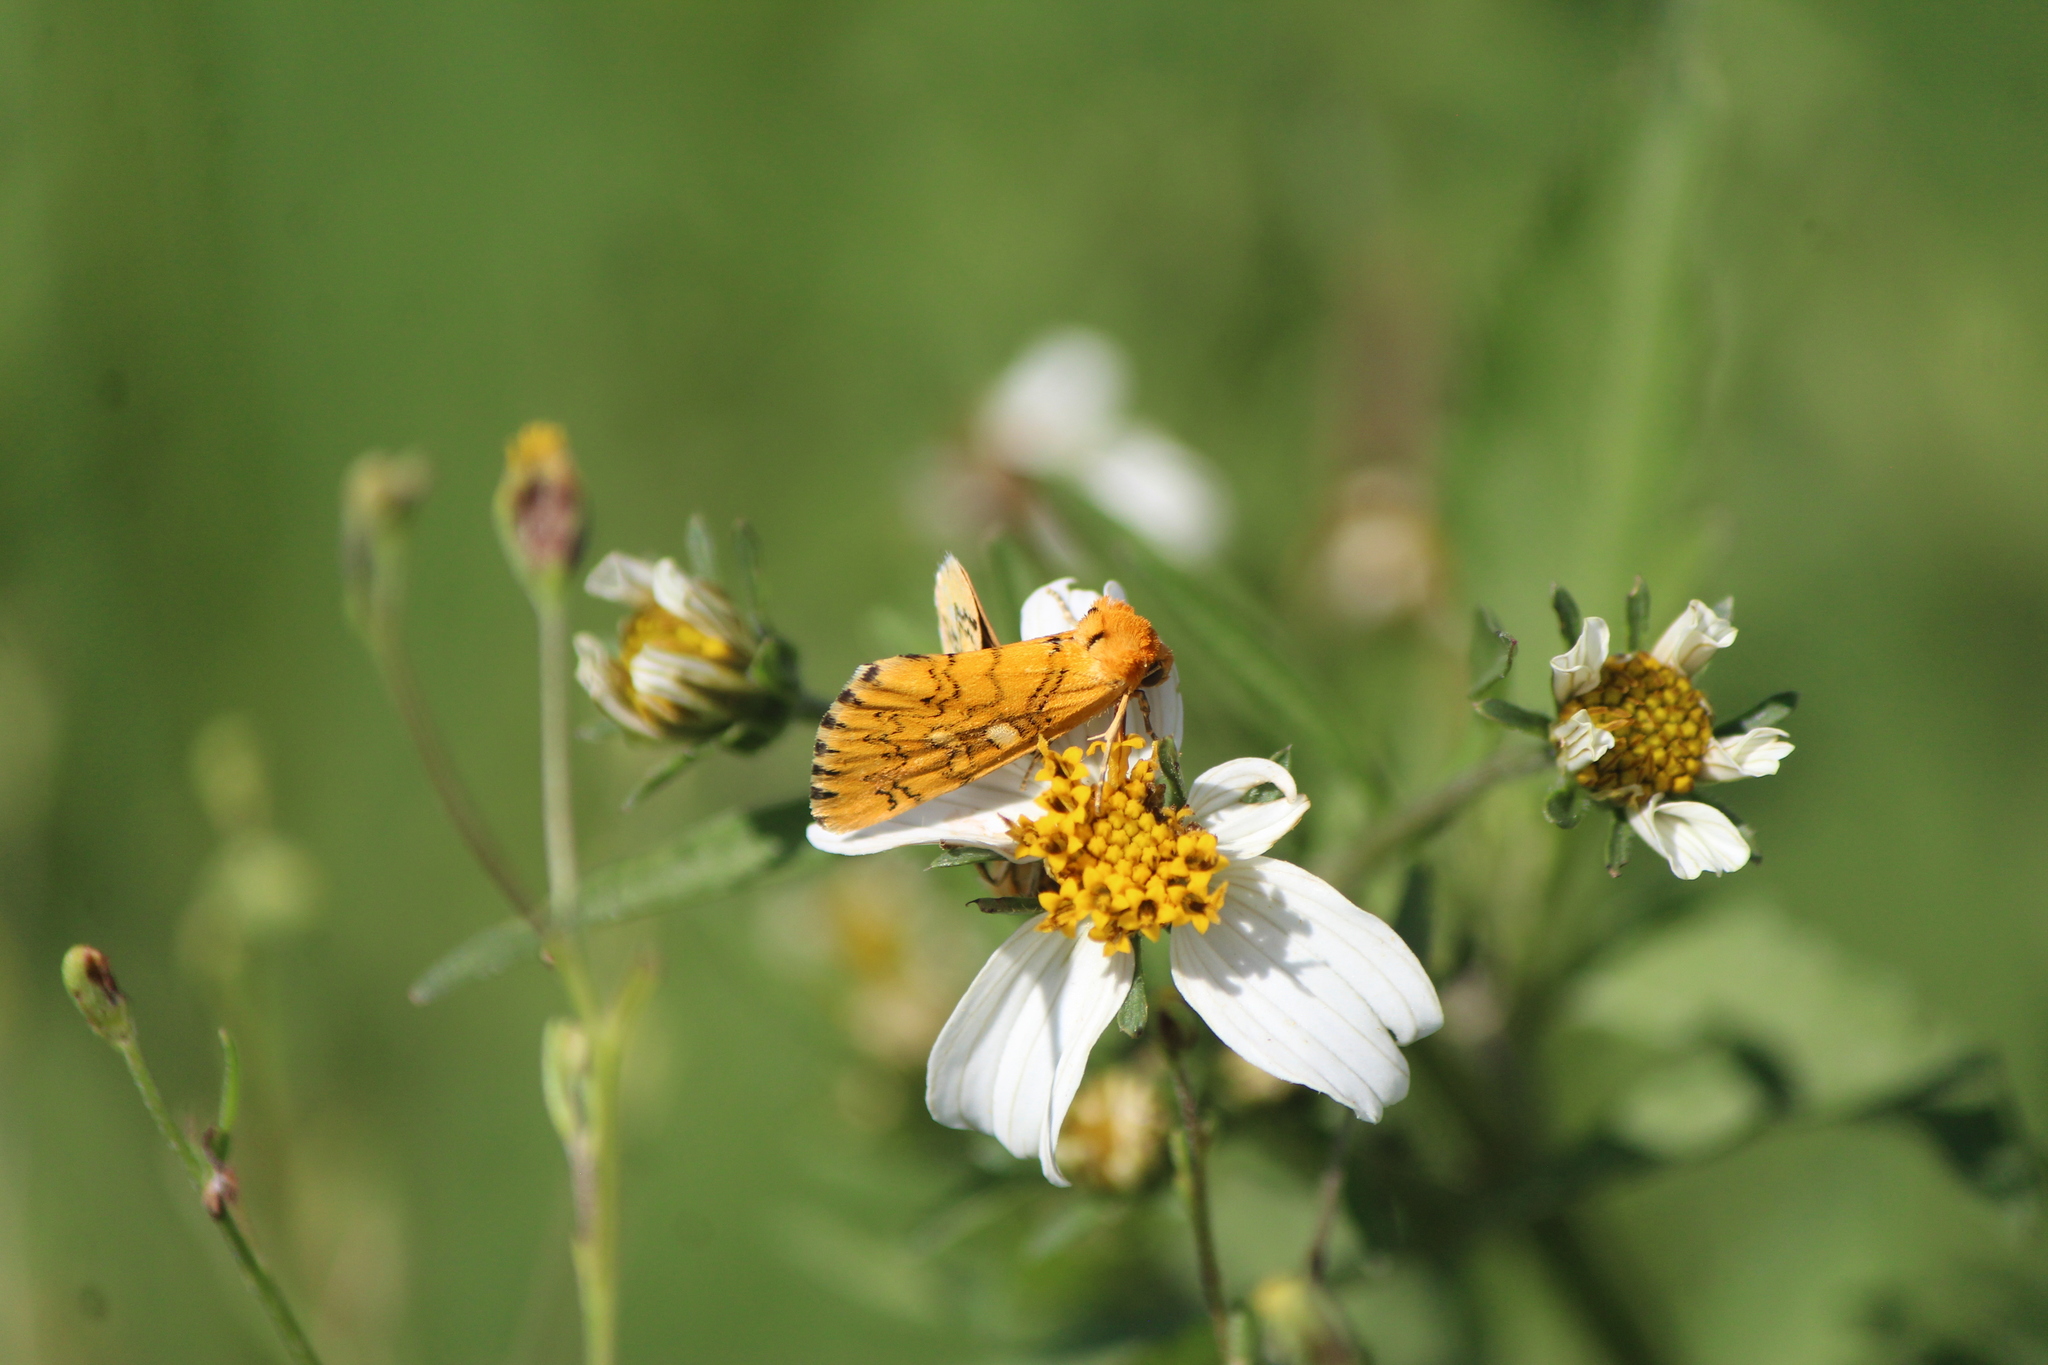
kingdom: Animalia
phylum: Arthropoda
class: Insecta
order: Lepidoptera
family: Noctuidae
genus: Chrysoecia
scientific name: Chrysoecia
